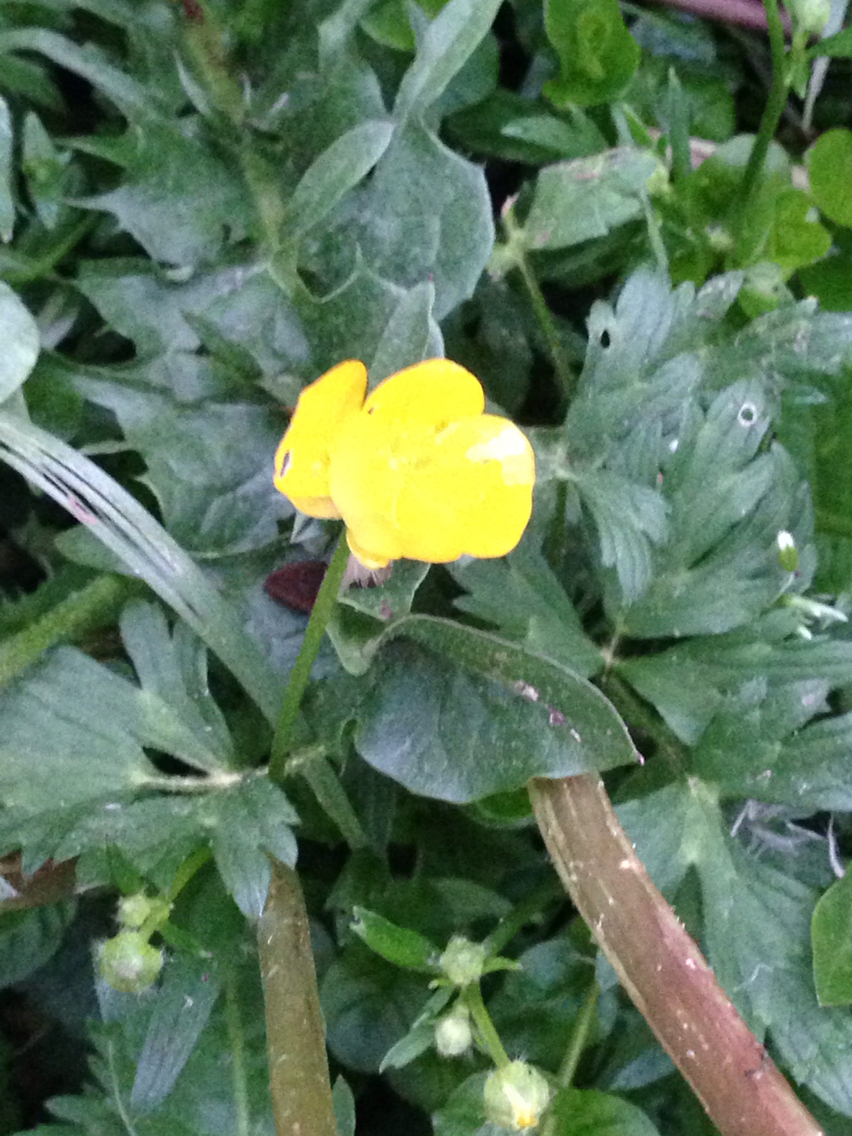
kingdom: Plantae
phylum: Tracheophyta
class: Magnoliopsida
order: Ranunculales
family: Ranunculaceae
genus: Ranunculus
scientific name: Ranunculus repens
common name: Creeping buttercup
